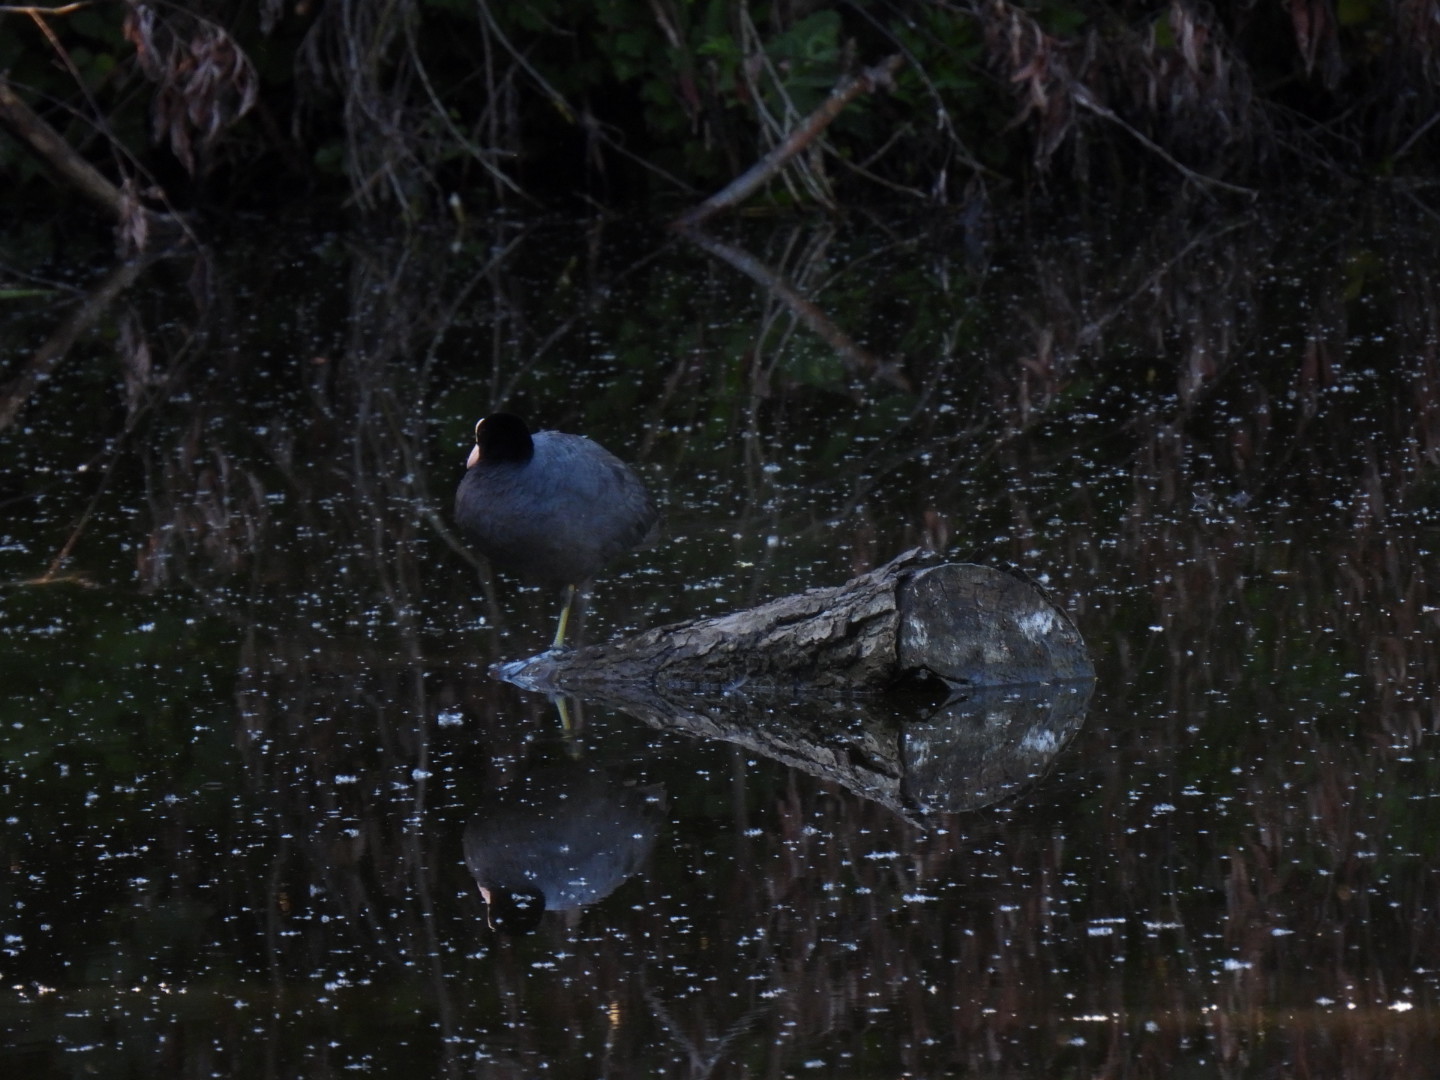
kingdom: Animalia
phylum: Chordata
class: Aves
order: Gruiformes
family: Rallidae
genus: Fulica
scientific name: Fulica atra
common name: Eurasian coot
